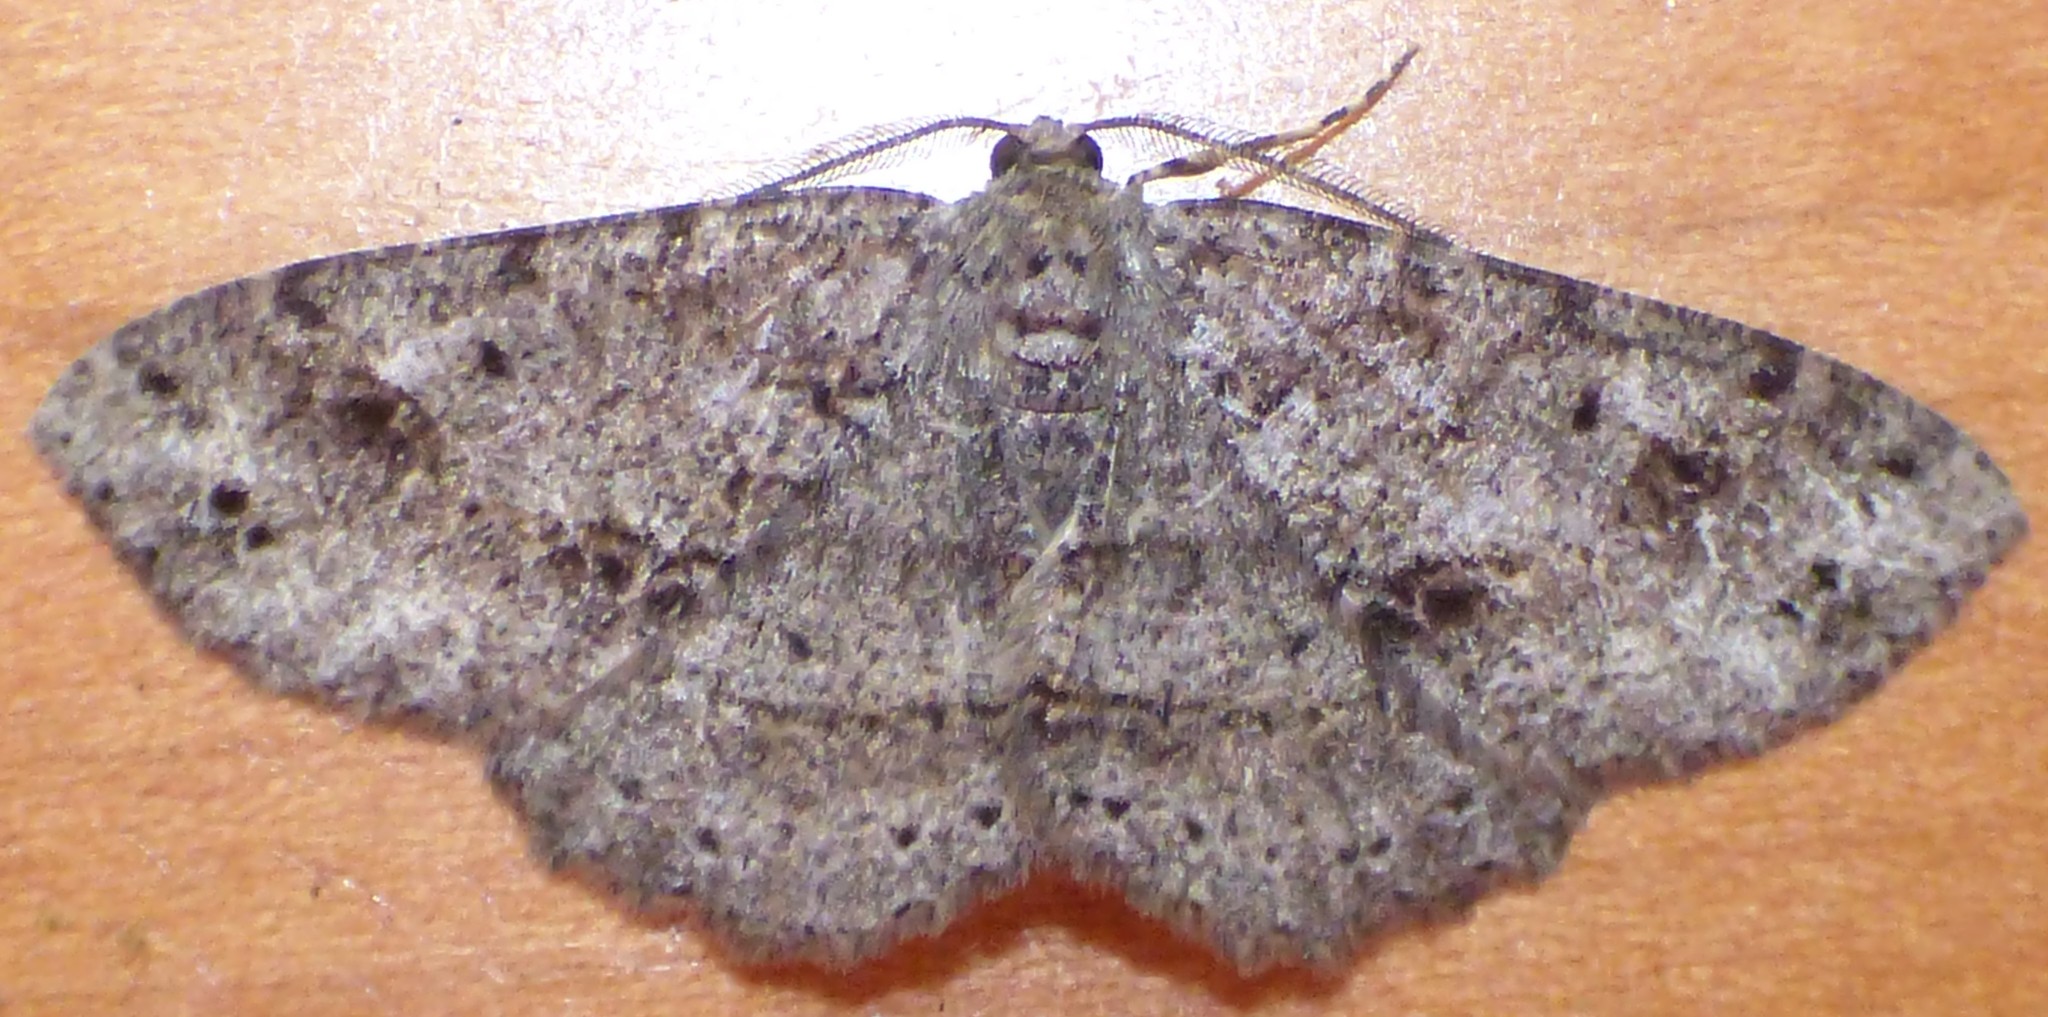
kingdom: Animalia
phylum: Arthropoda
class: Insecta
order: Lepidoptera
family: Geometridae
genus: Melanolophia
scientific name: Melanolophia canadaria
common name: Canadian melanolophia
